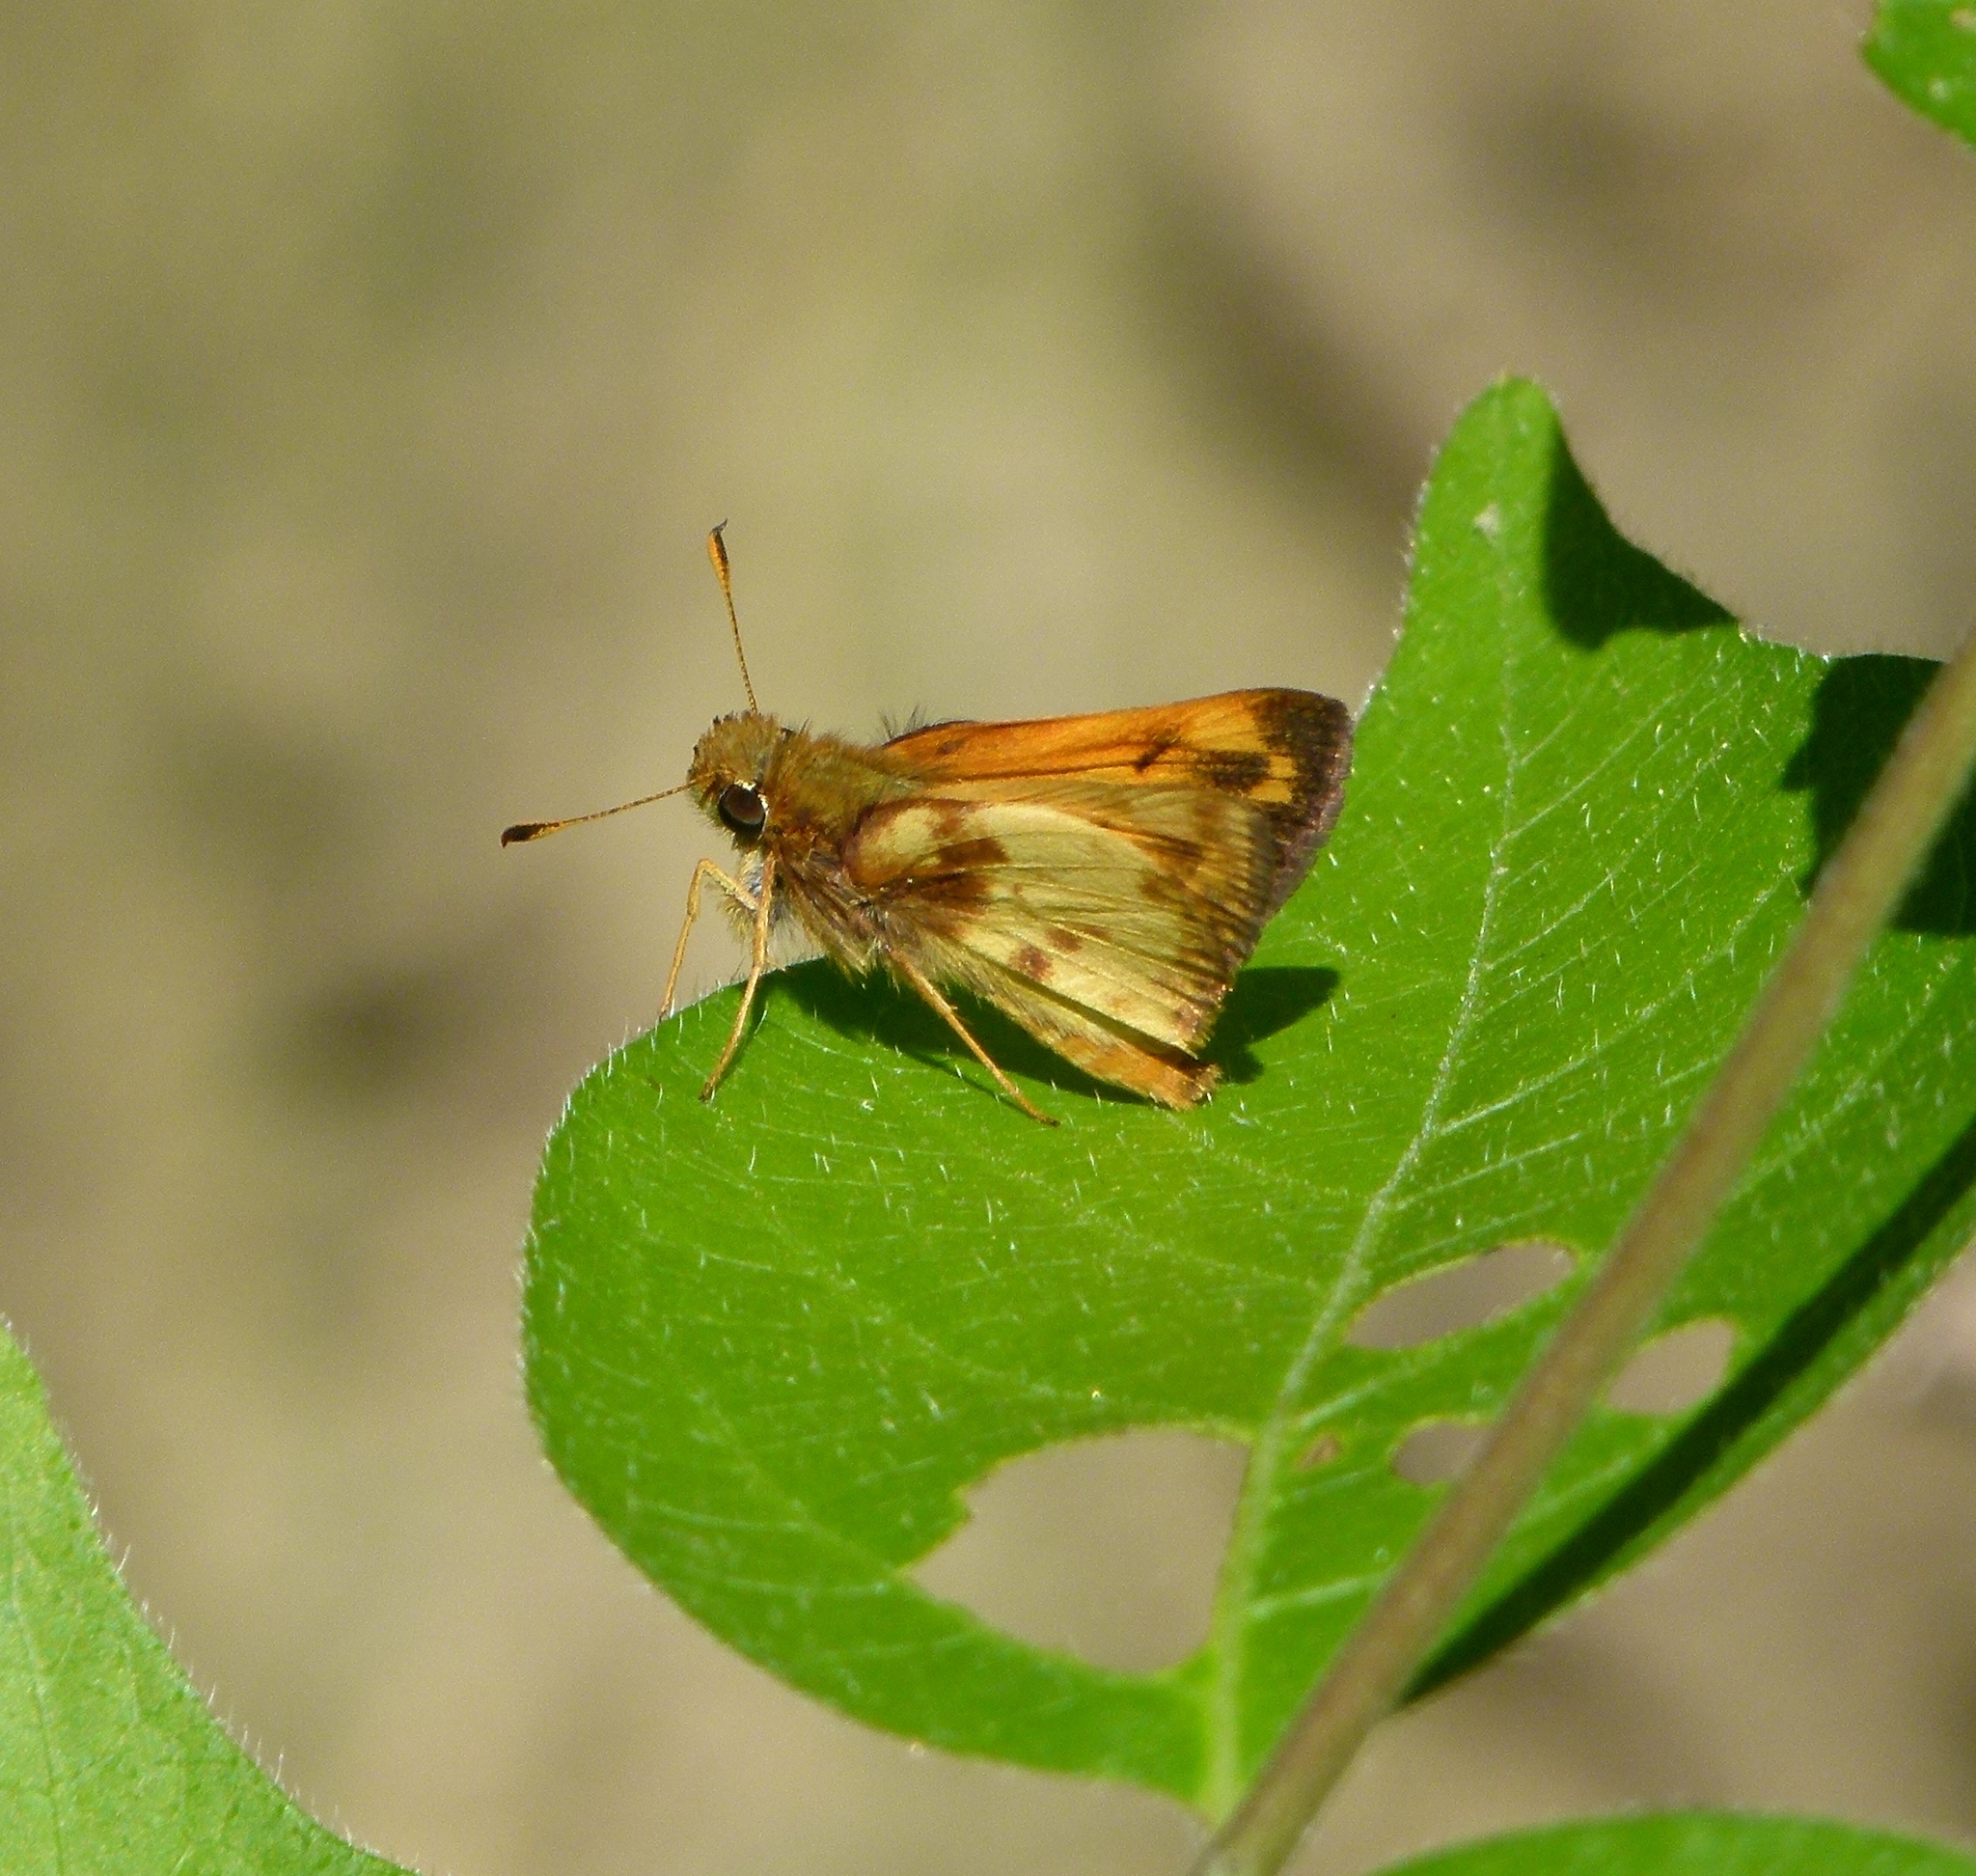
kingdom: Animalia
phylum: Arthropoda
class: Insecta
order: Lepidoptera
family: Hesperiidae
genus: Lon
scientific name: Lon zabulon
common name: Zabulon skipper
